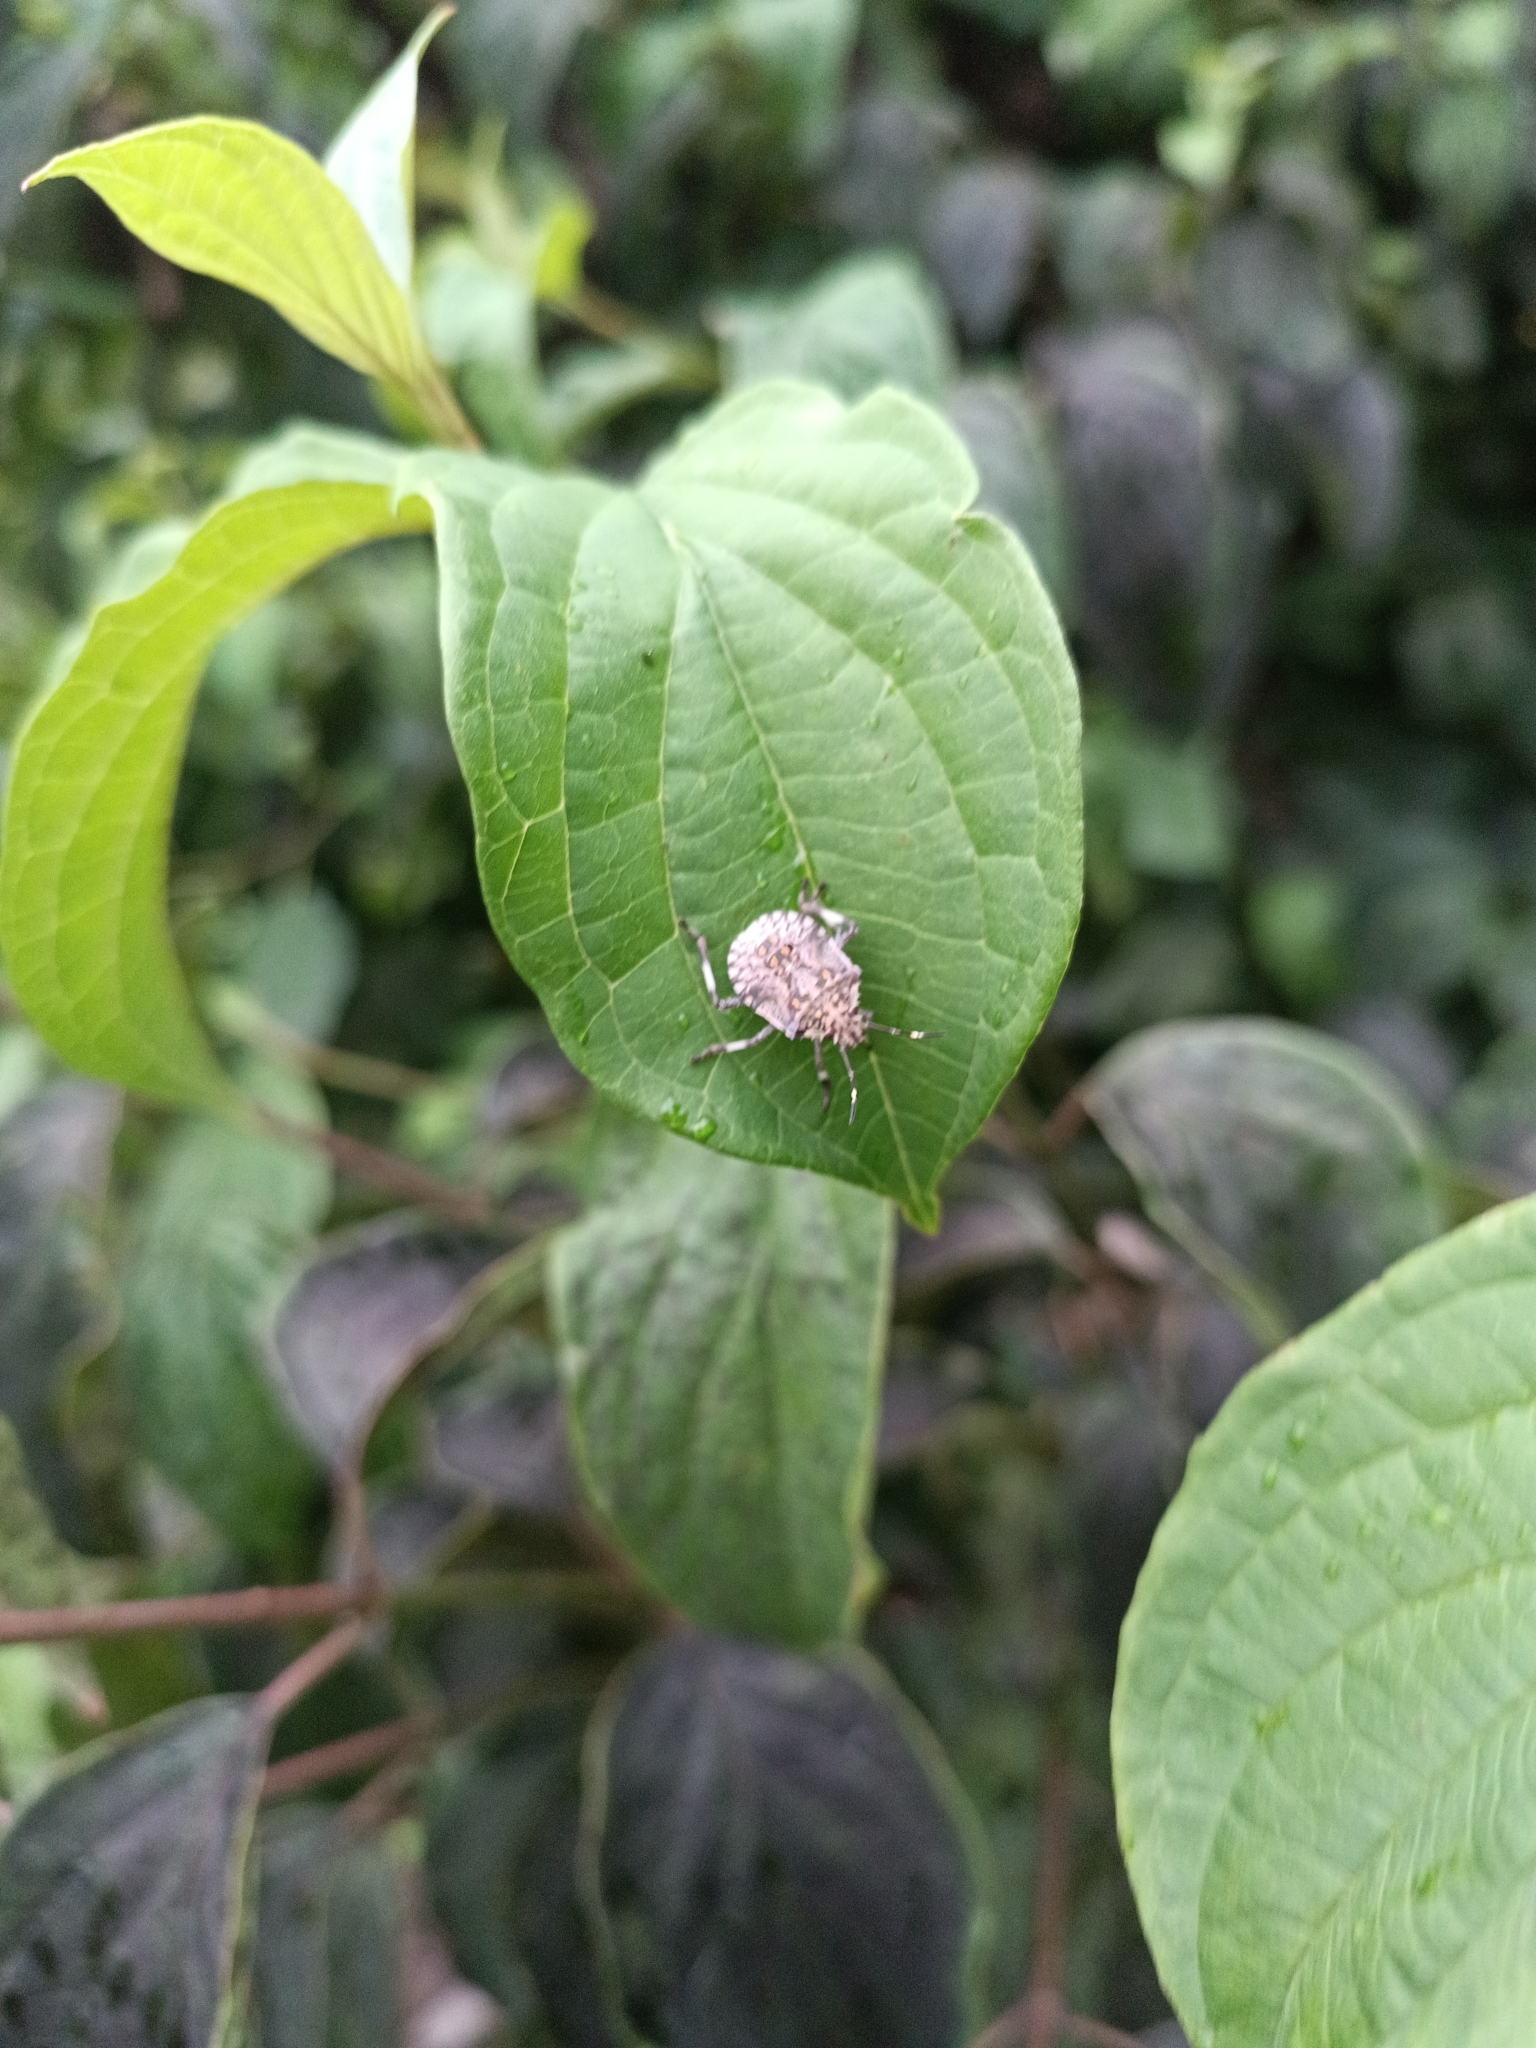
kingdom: Animalia
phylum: Arthropoda
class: Insecta
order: Hemiptera
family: Pentatomidae
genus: Halyomorpha
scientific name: Halyomorpha halys
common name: Brown marmorated stink bug
